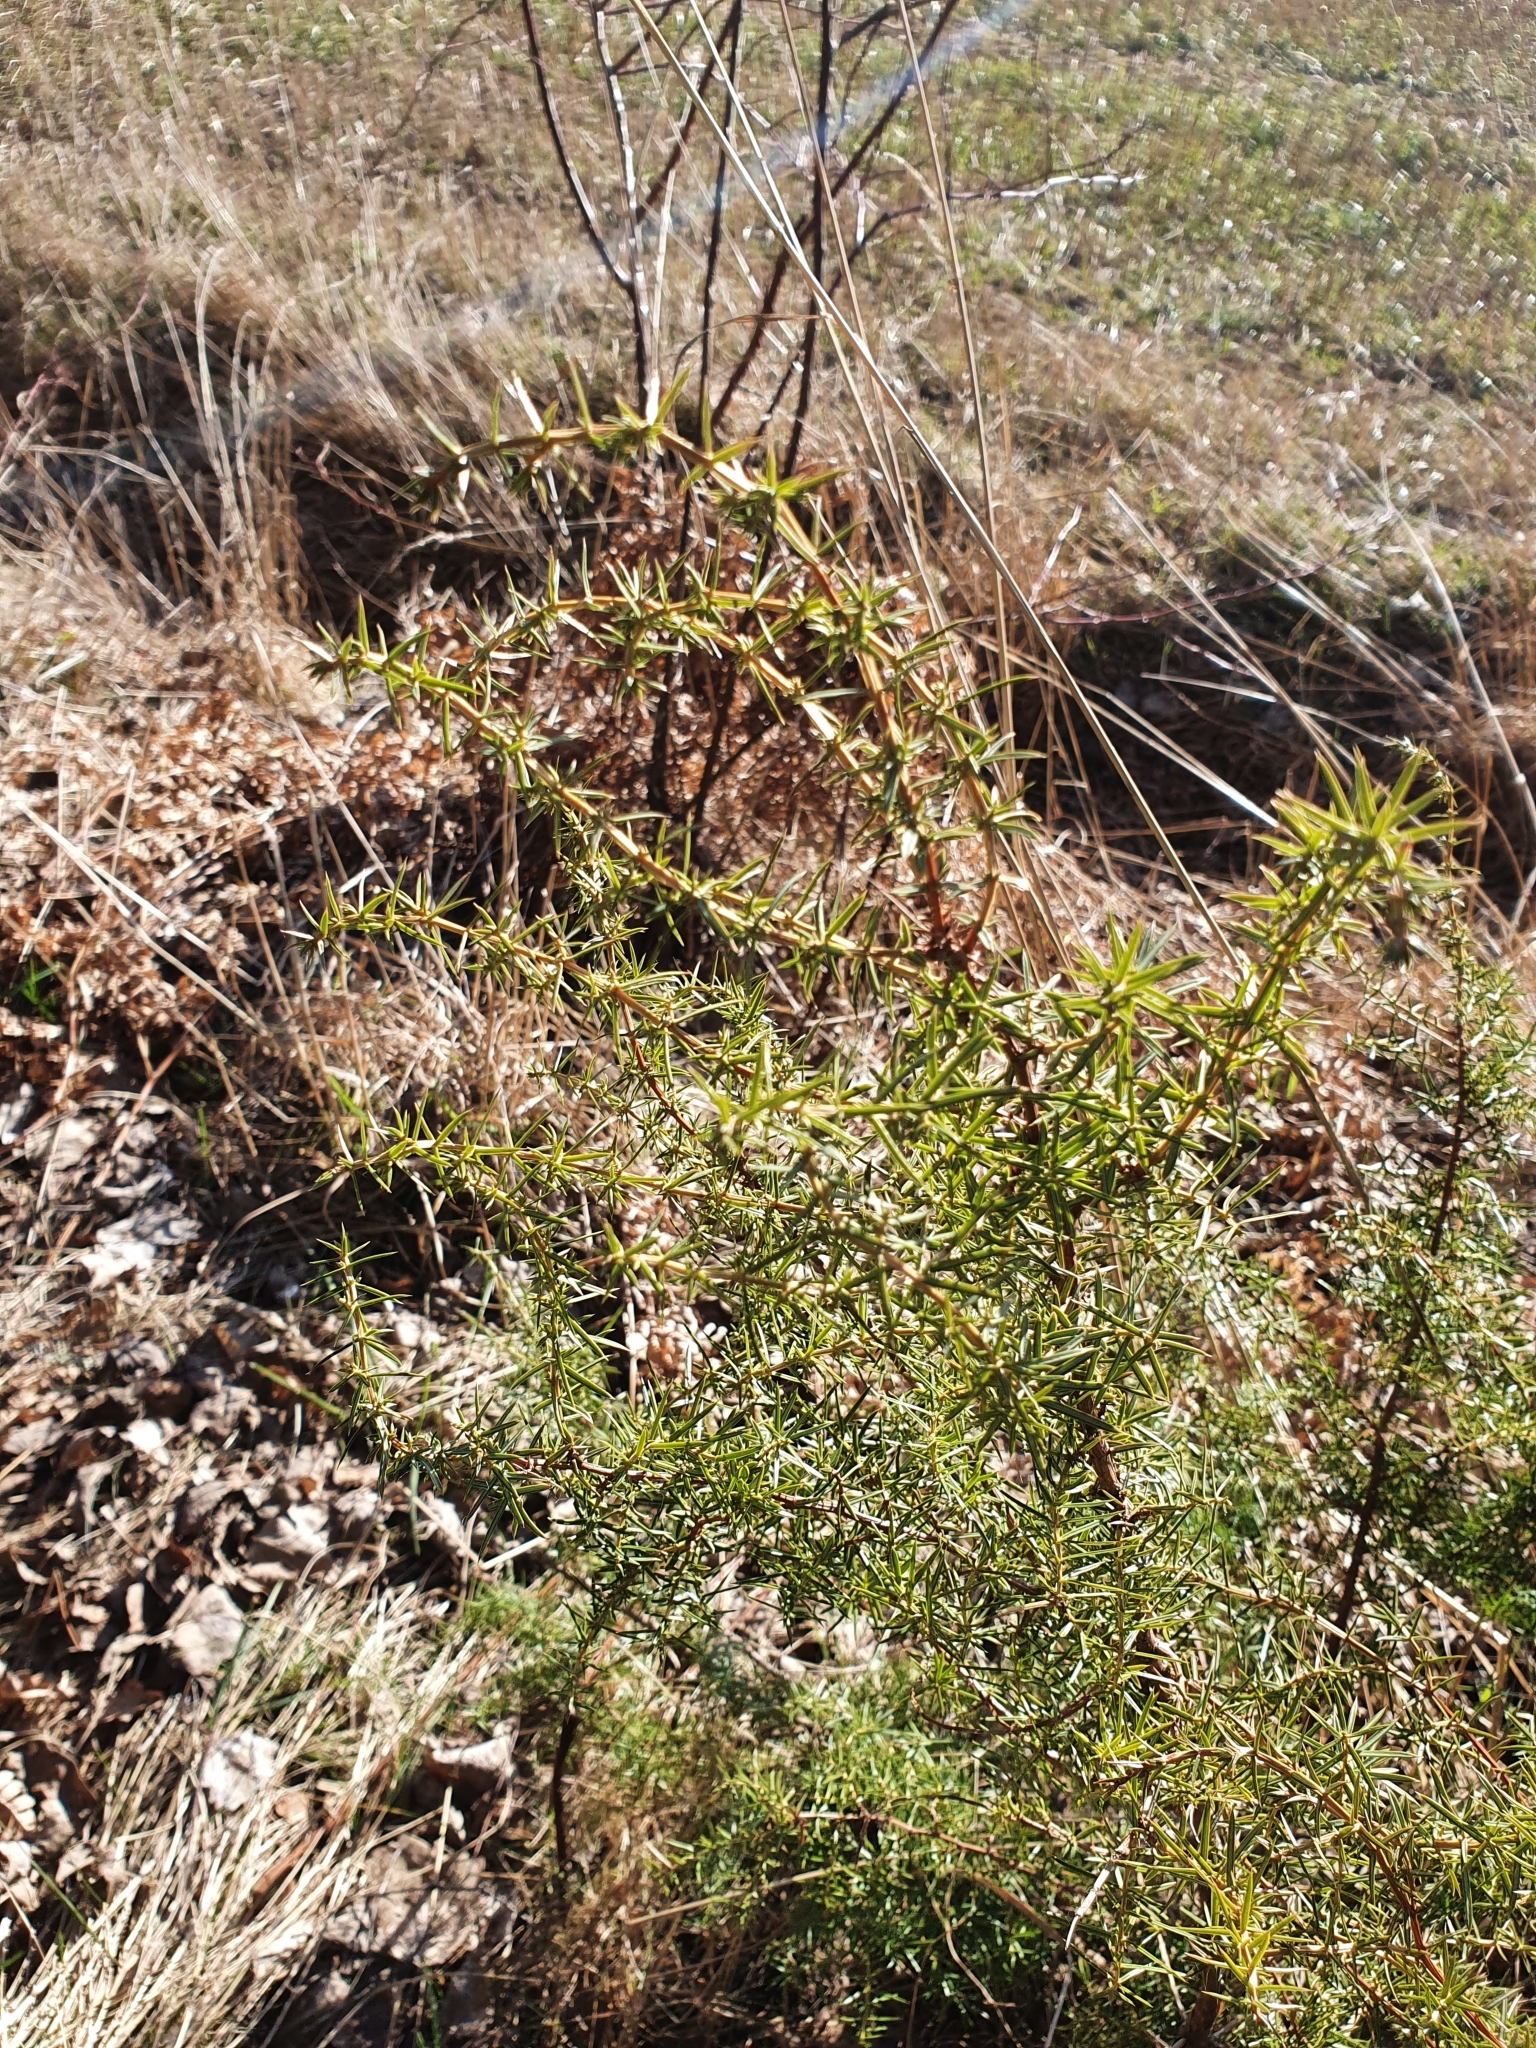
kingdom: Plantae
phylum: Tracheophyta
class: Pinopsida
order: Pinales
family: Cupressaceae
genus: Juniperus
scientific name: Juniperus communis
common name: Common juniper
